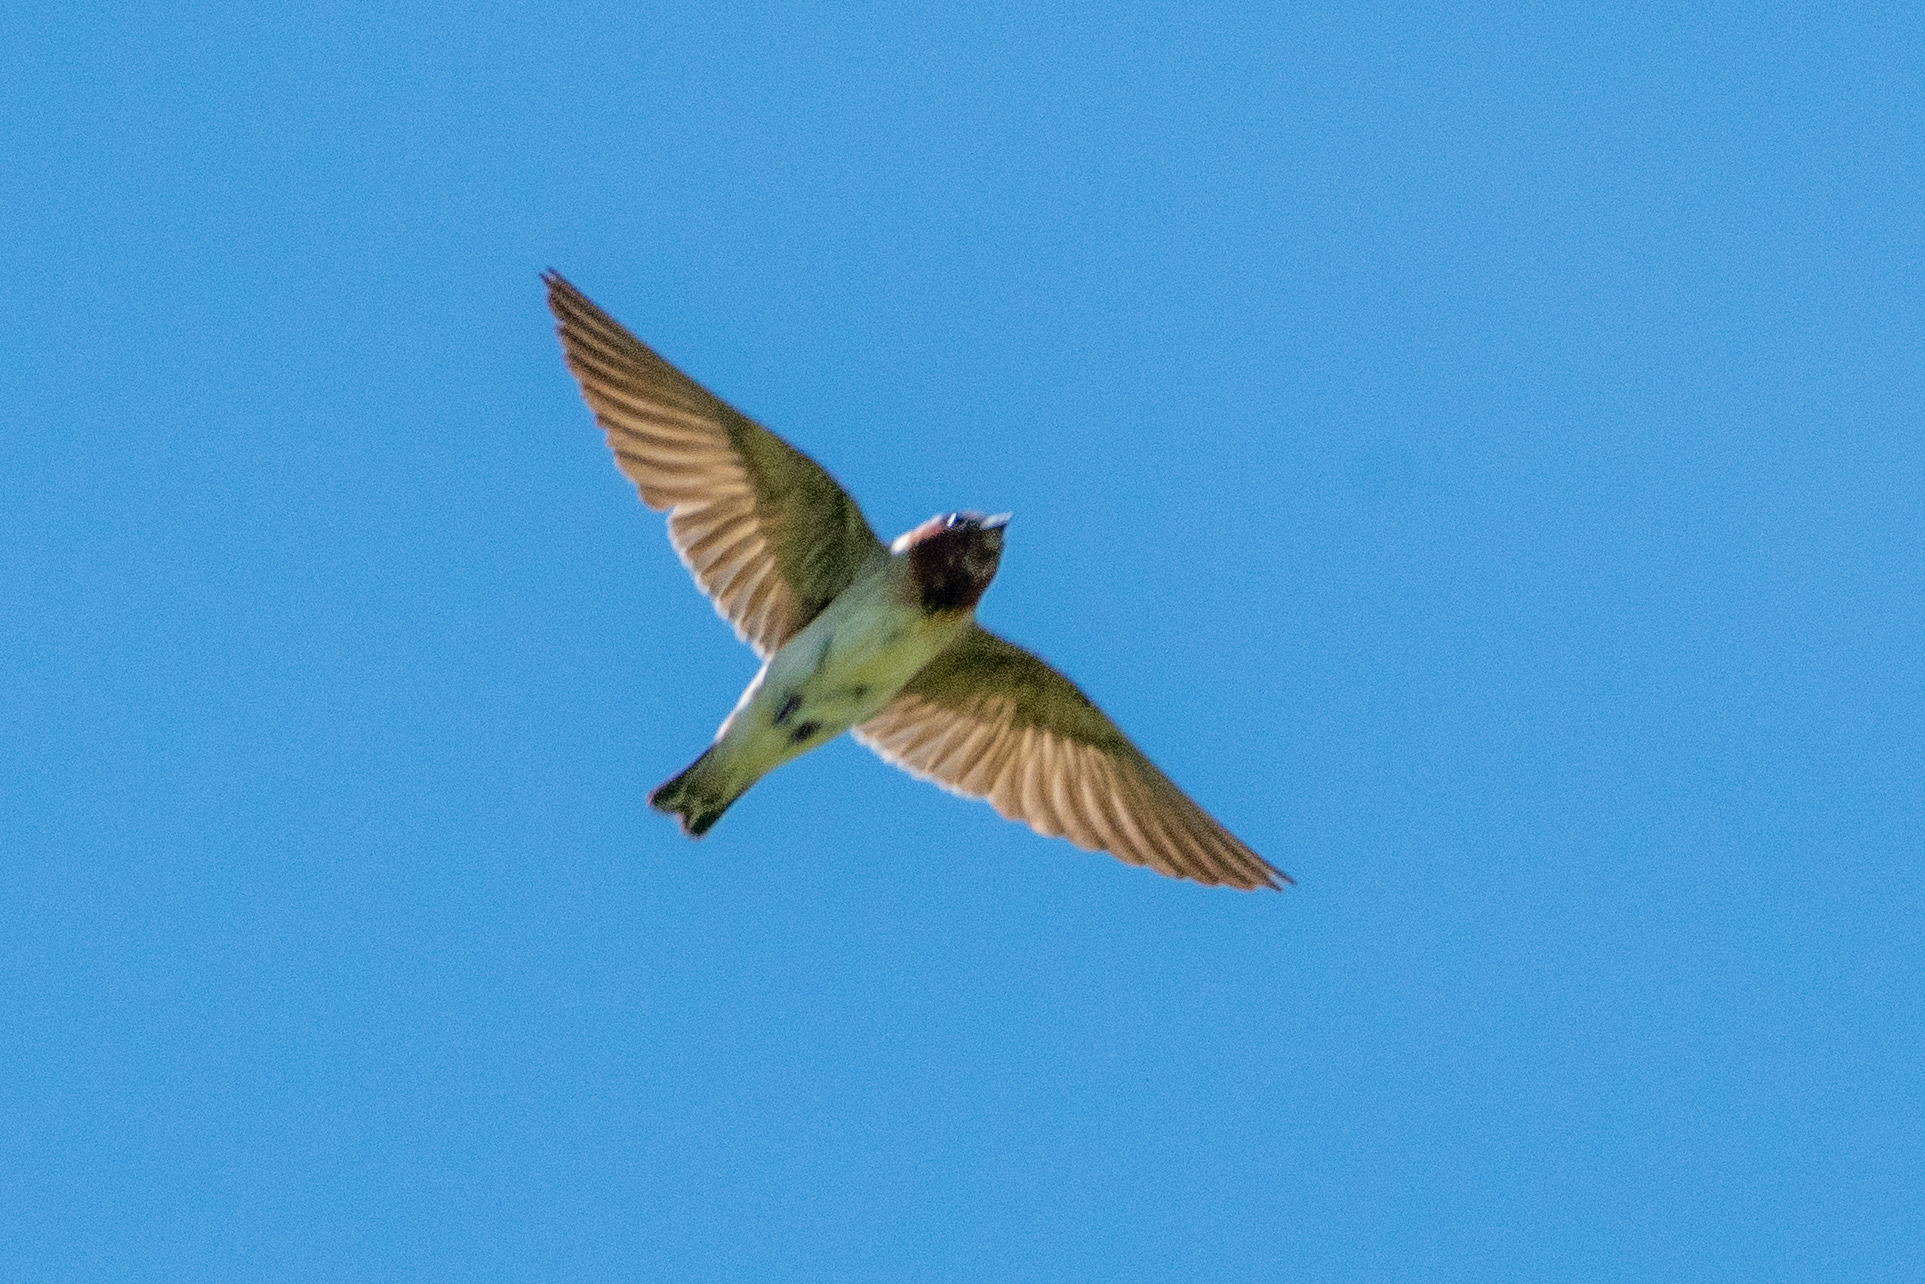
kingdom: Animalia
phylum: Chordata
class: Aves
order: Passeriformes
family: Hirundinidae
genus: Petrochelidon
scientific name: Petrochelidon pyrrhonota
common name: American cliff swallow
